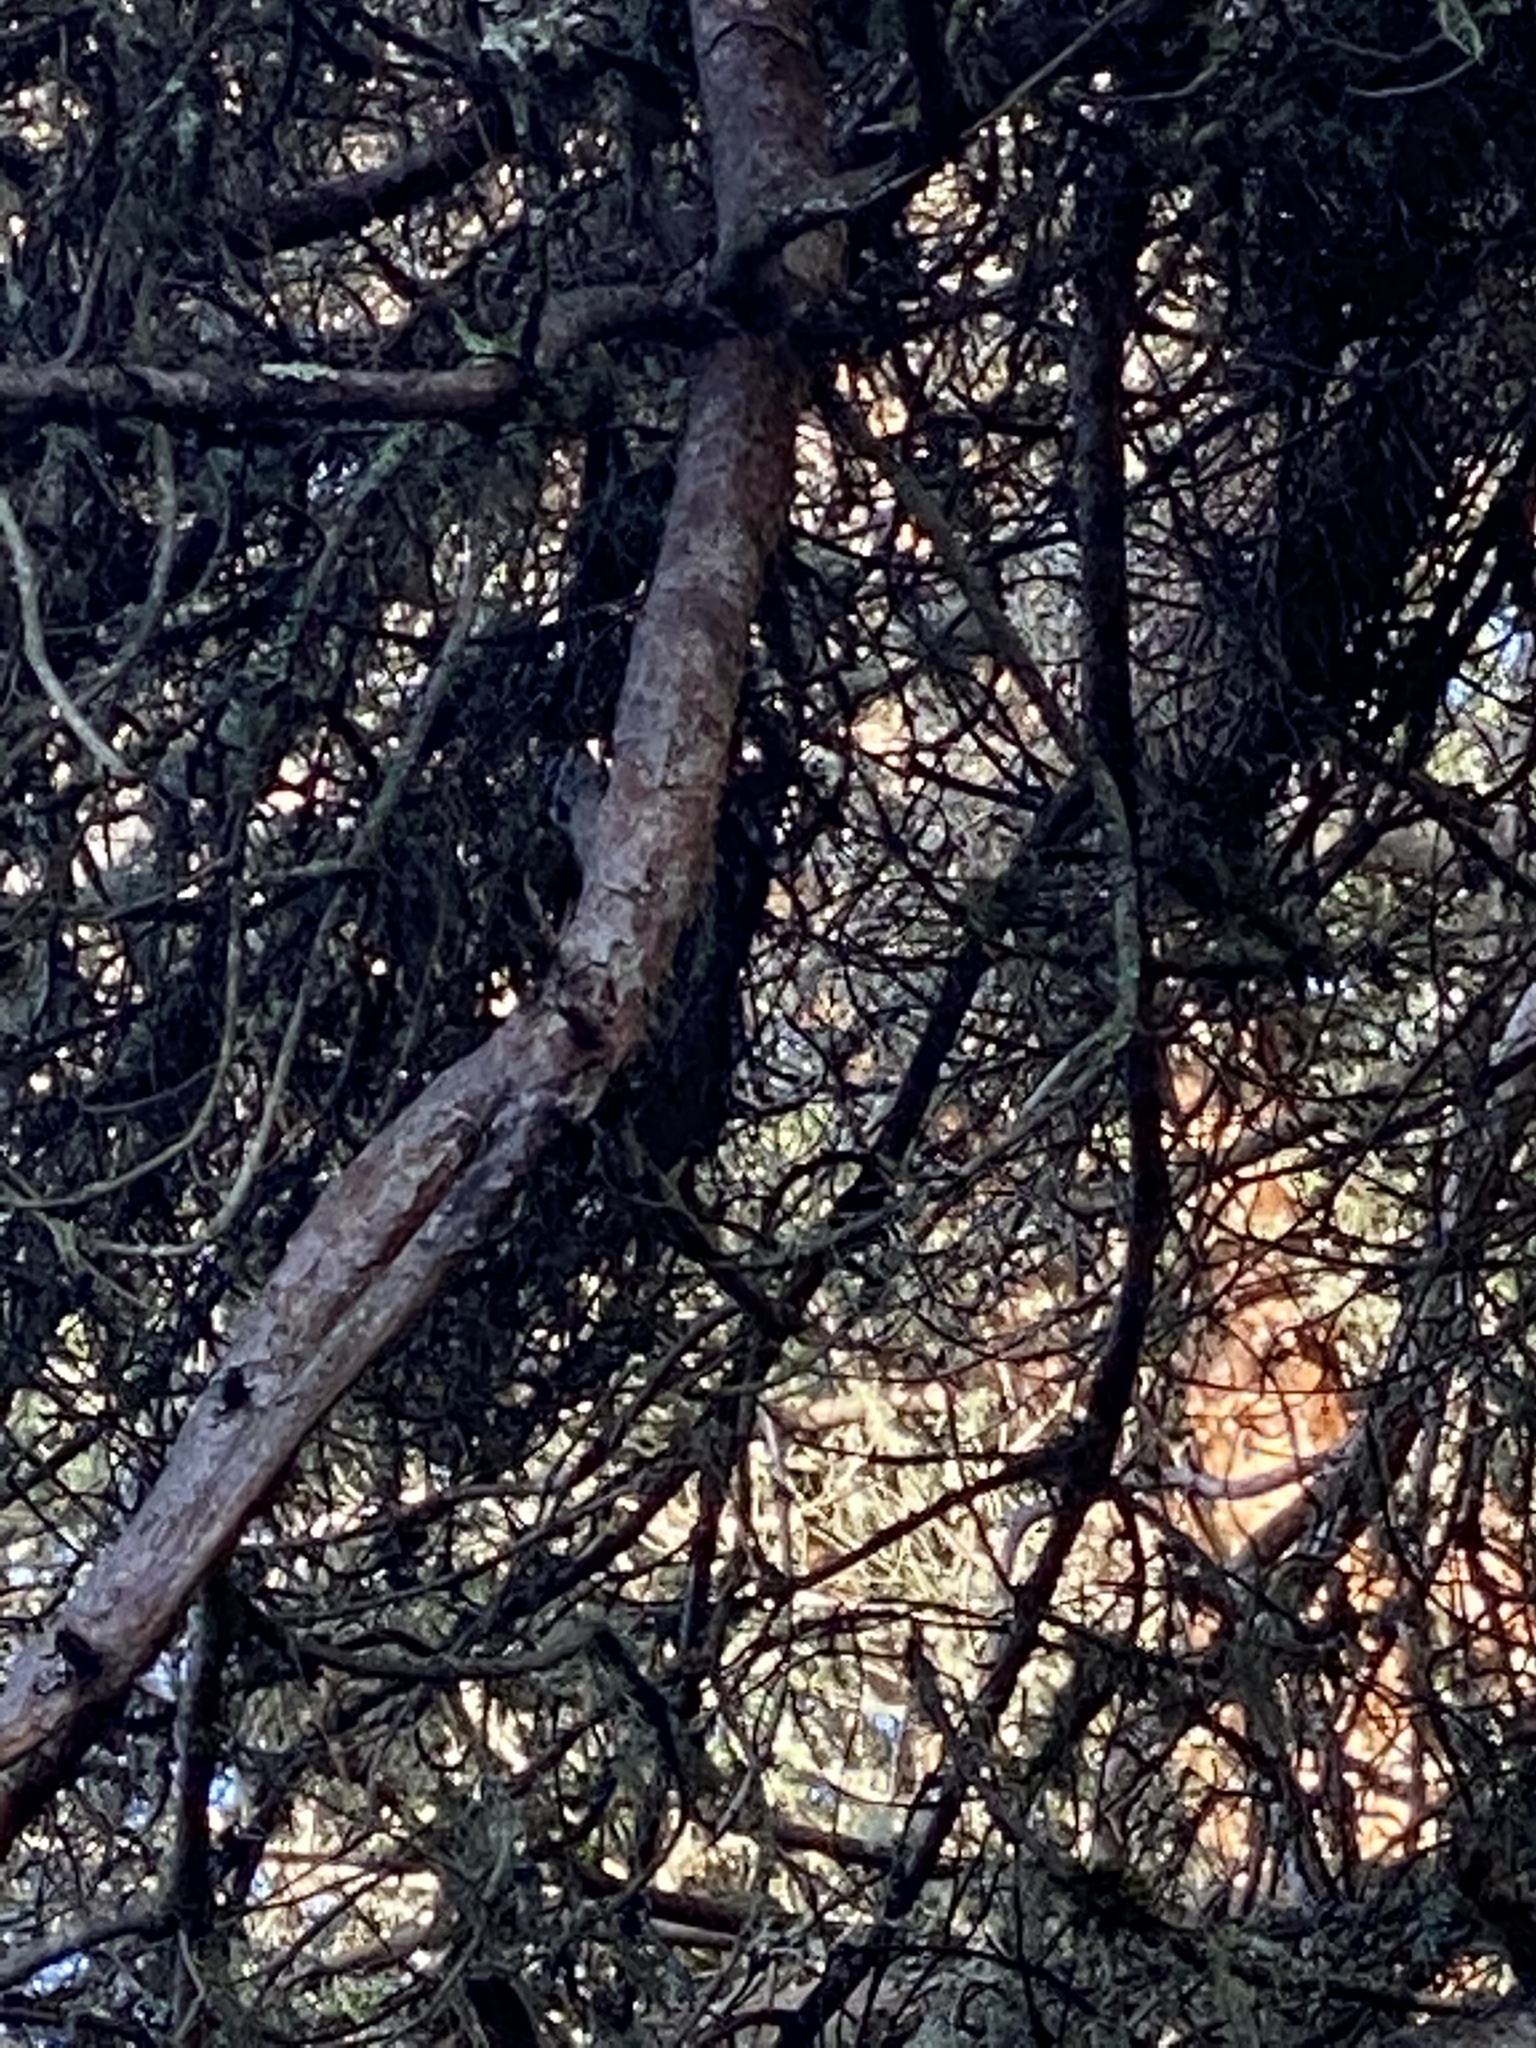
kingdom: Animalia
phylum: Chordata
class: Aves
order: Piciformes
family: Picidae
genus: Dryobates
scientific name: Dryobates pubescens
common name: Downy woodpecker
